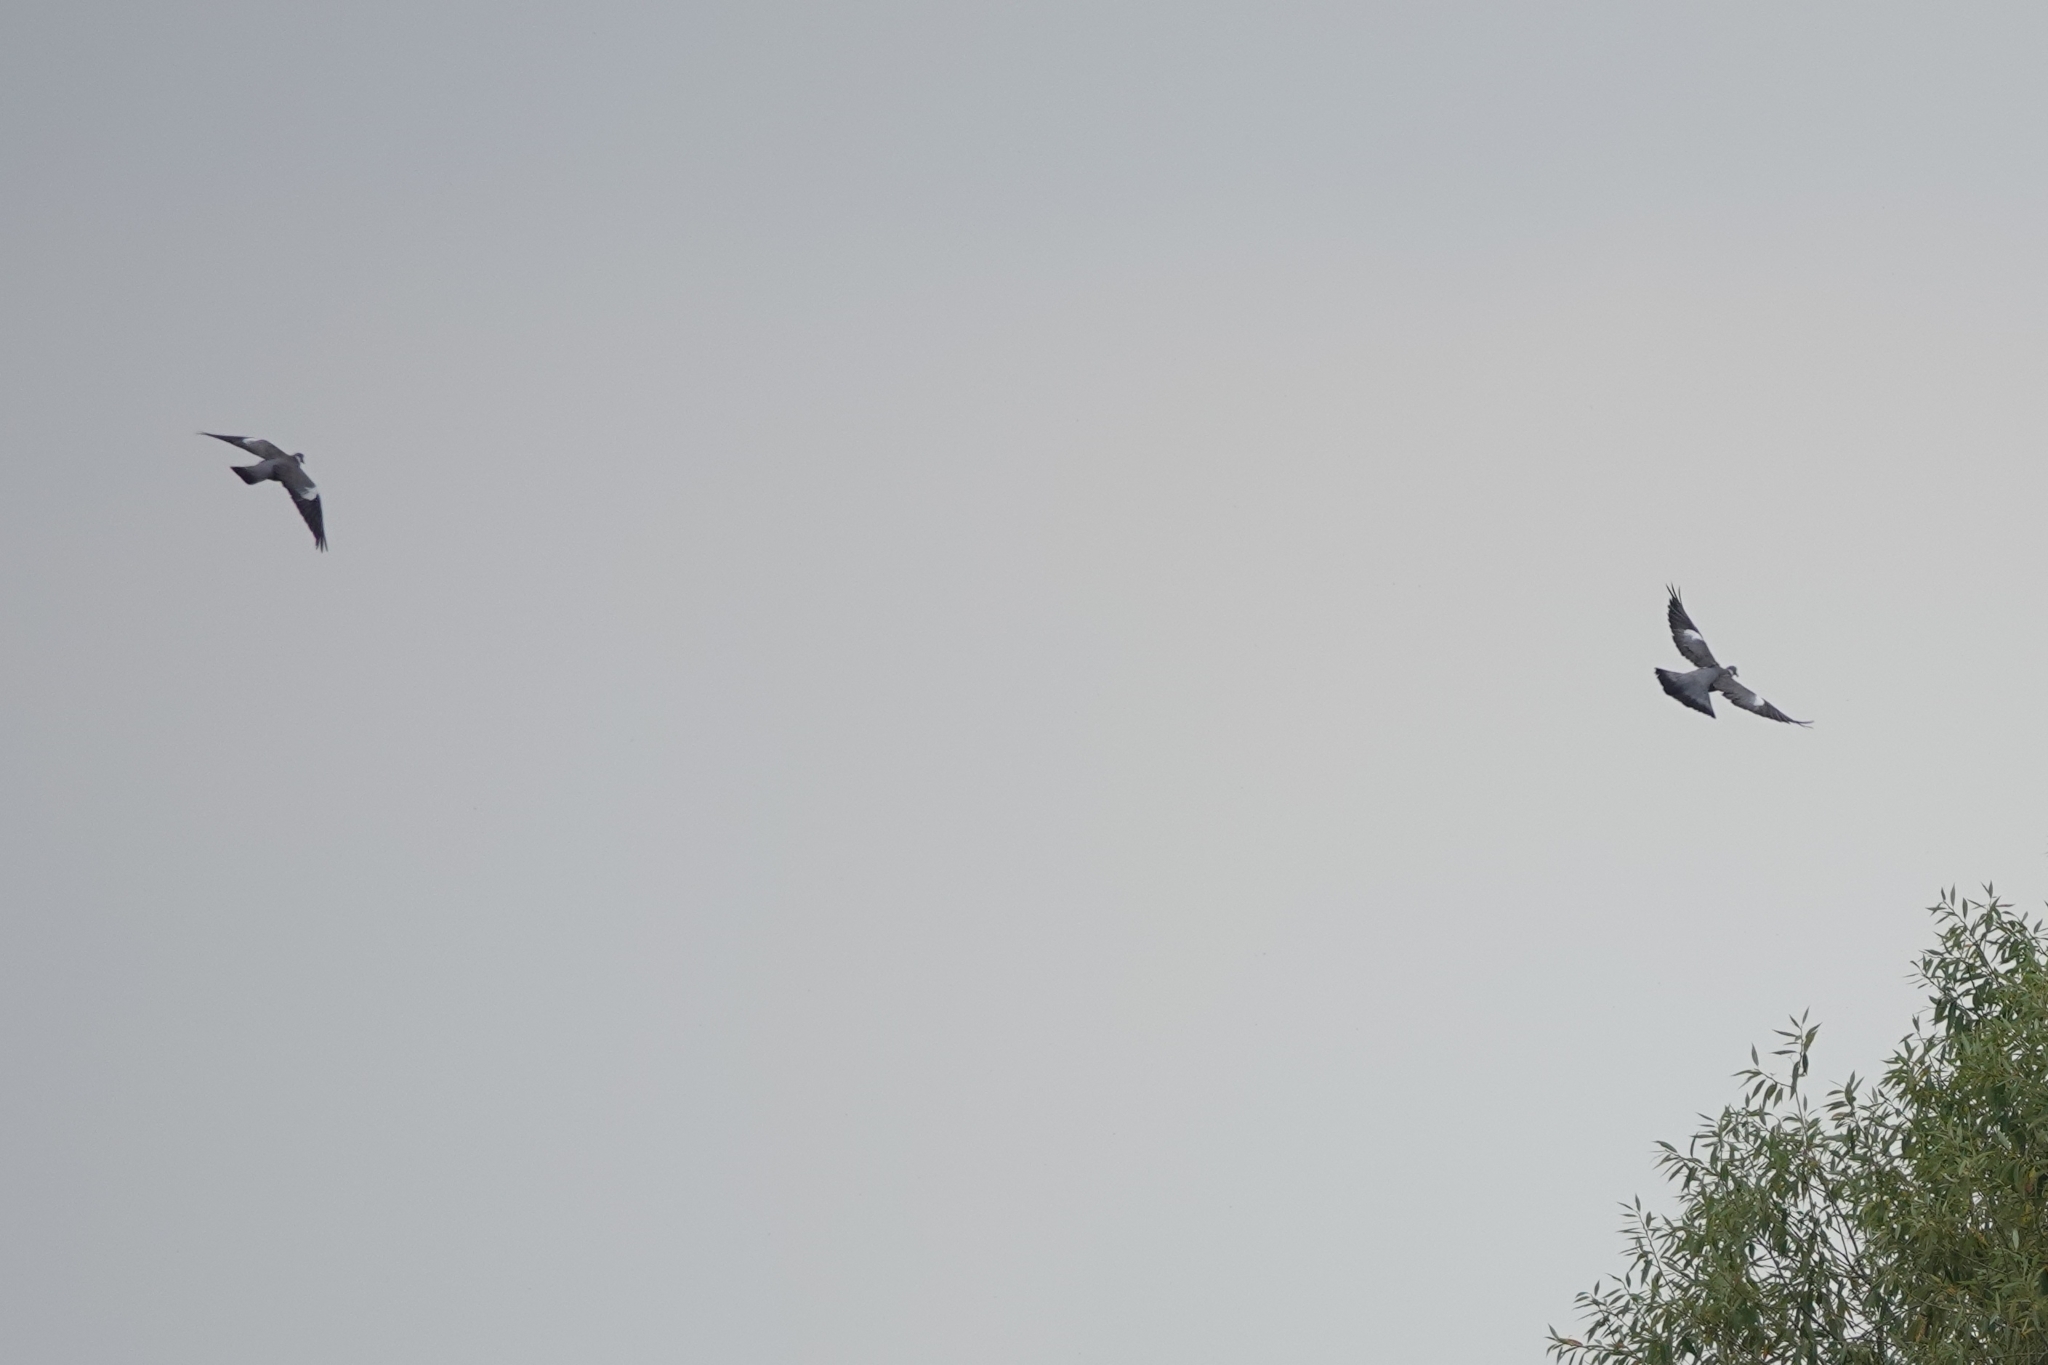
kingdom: Animalia
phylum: Chordata
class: Aves
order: Columbiformes
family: Columbidae
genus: Columba
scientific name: Columba palumbus
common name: Common wood pigeon
